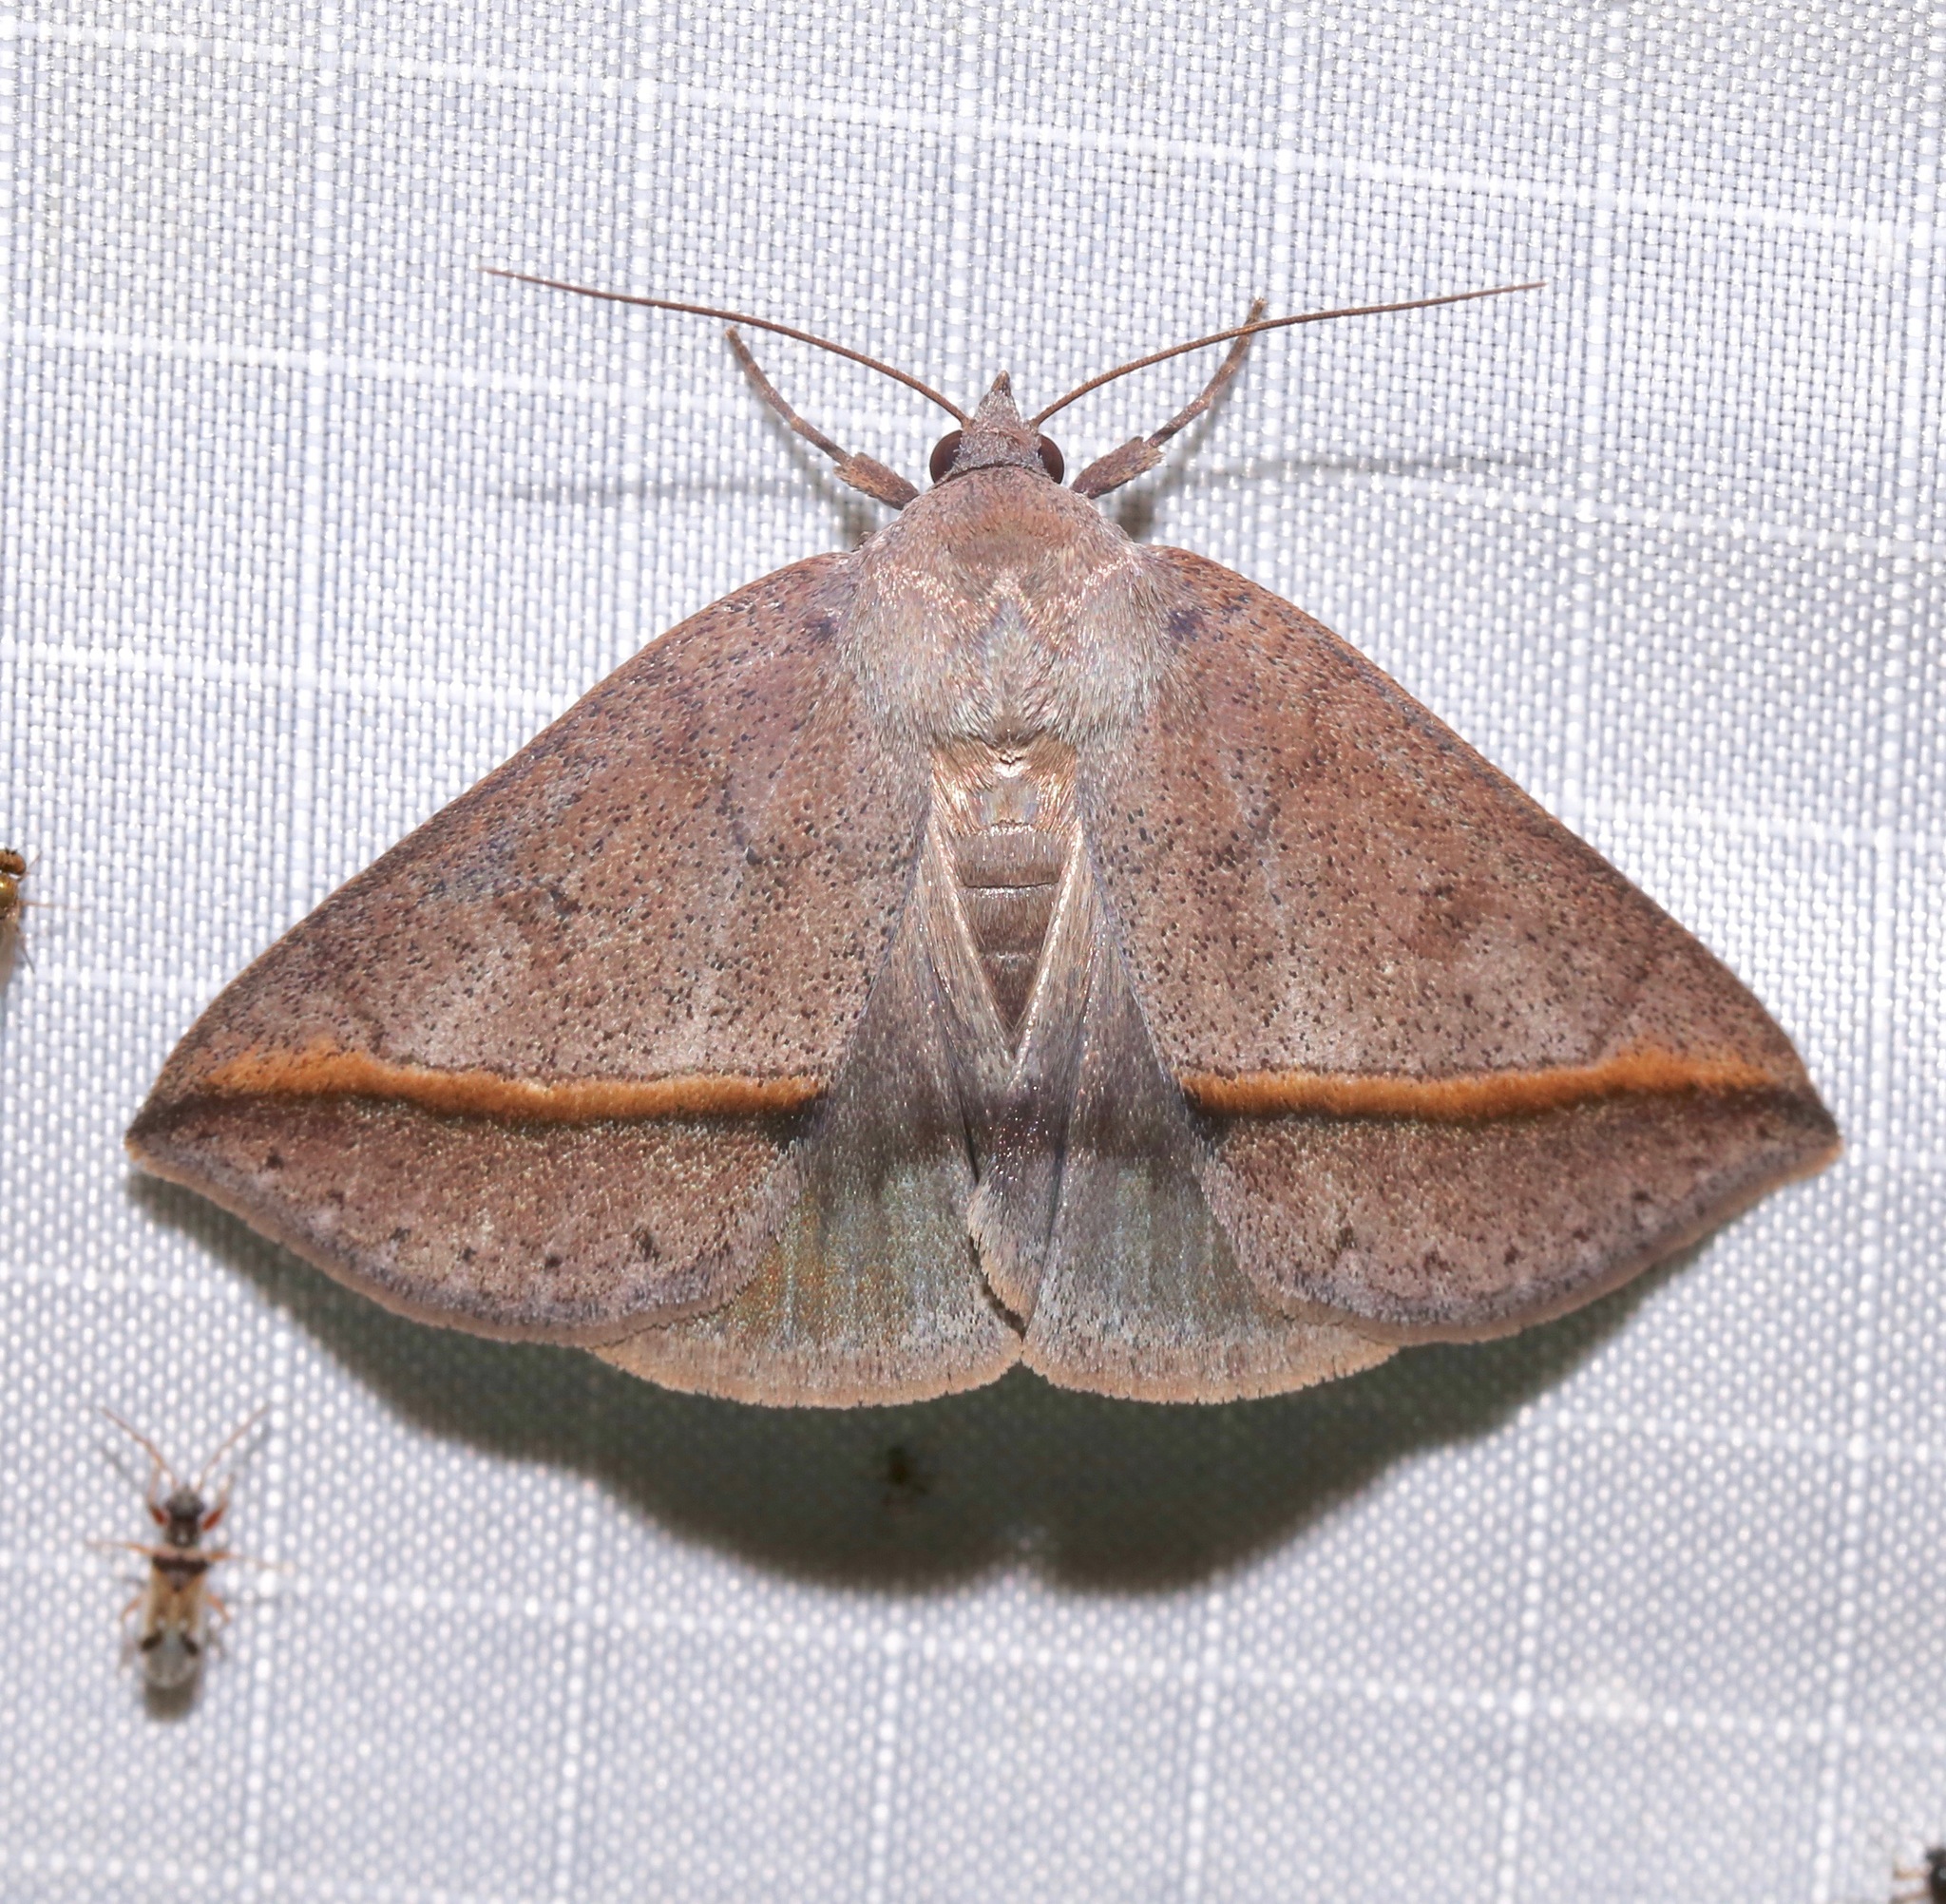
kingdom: Animalia
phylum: Arthropoda
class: Insecta
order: Lepidoptera
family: Erebidae
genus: Argyrostrotis
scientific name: Argyrostrotis flavistriaria
